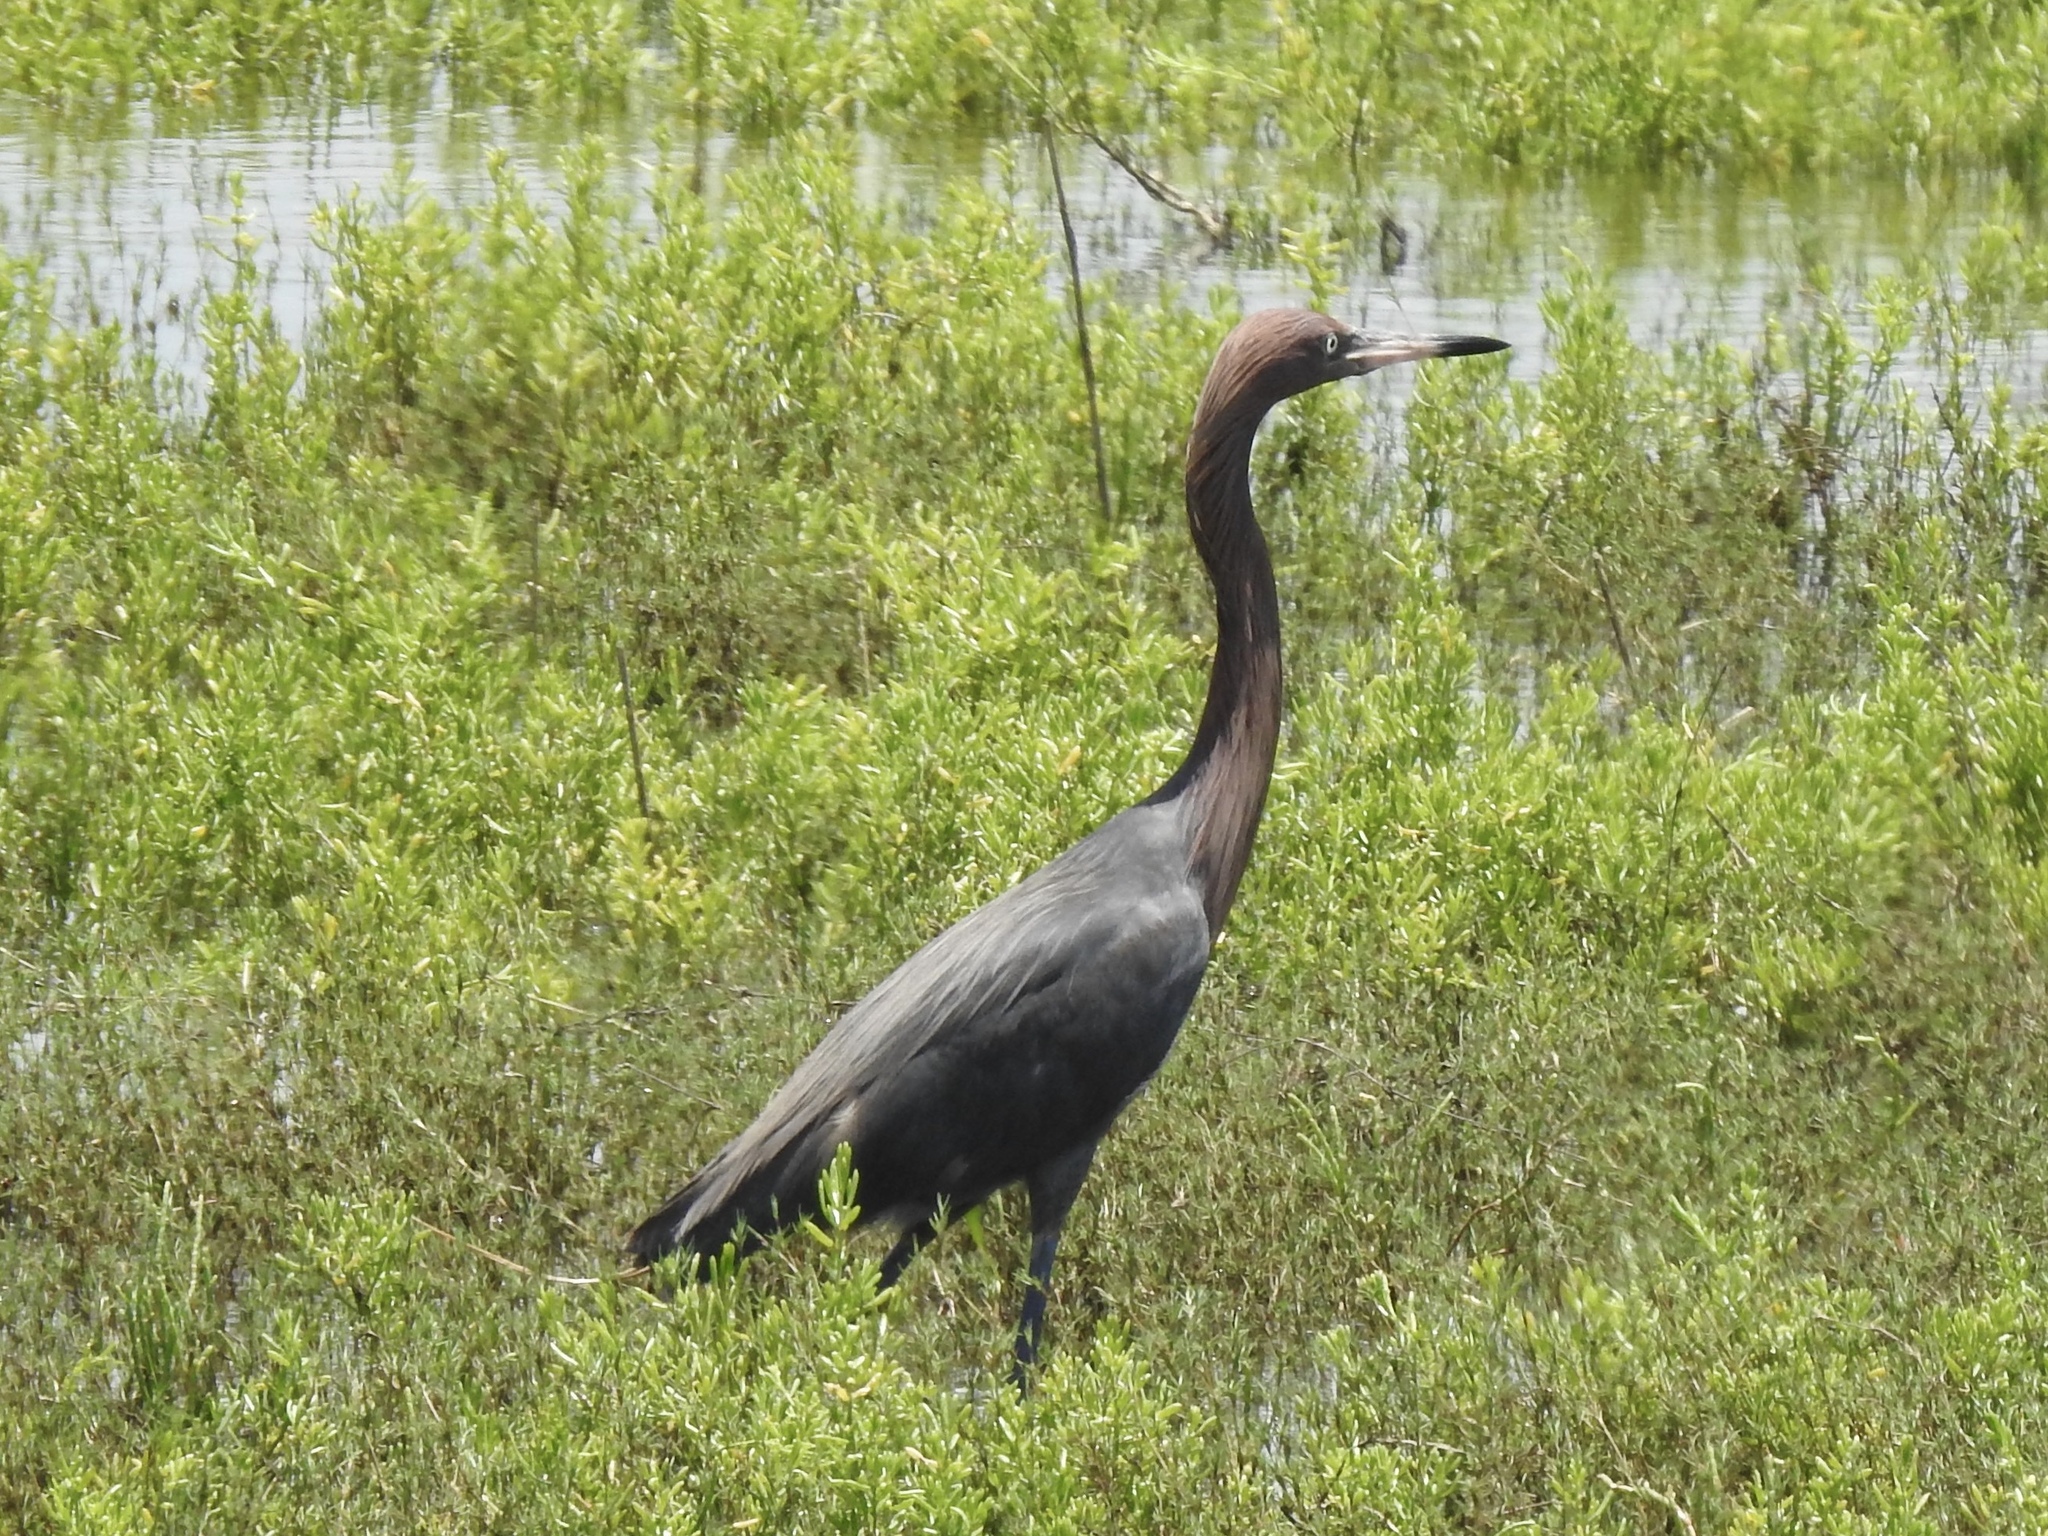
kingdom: Animalia
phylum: Chordata
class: Aves
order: Pelecaniformes
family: Ardeidae
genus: Egretta
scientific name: Egretta rufescens
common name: Reddish egret
